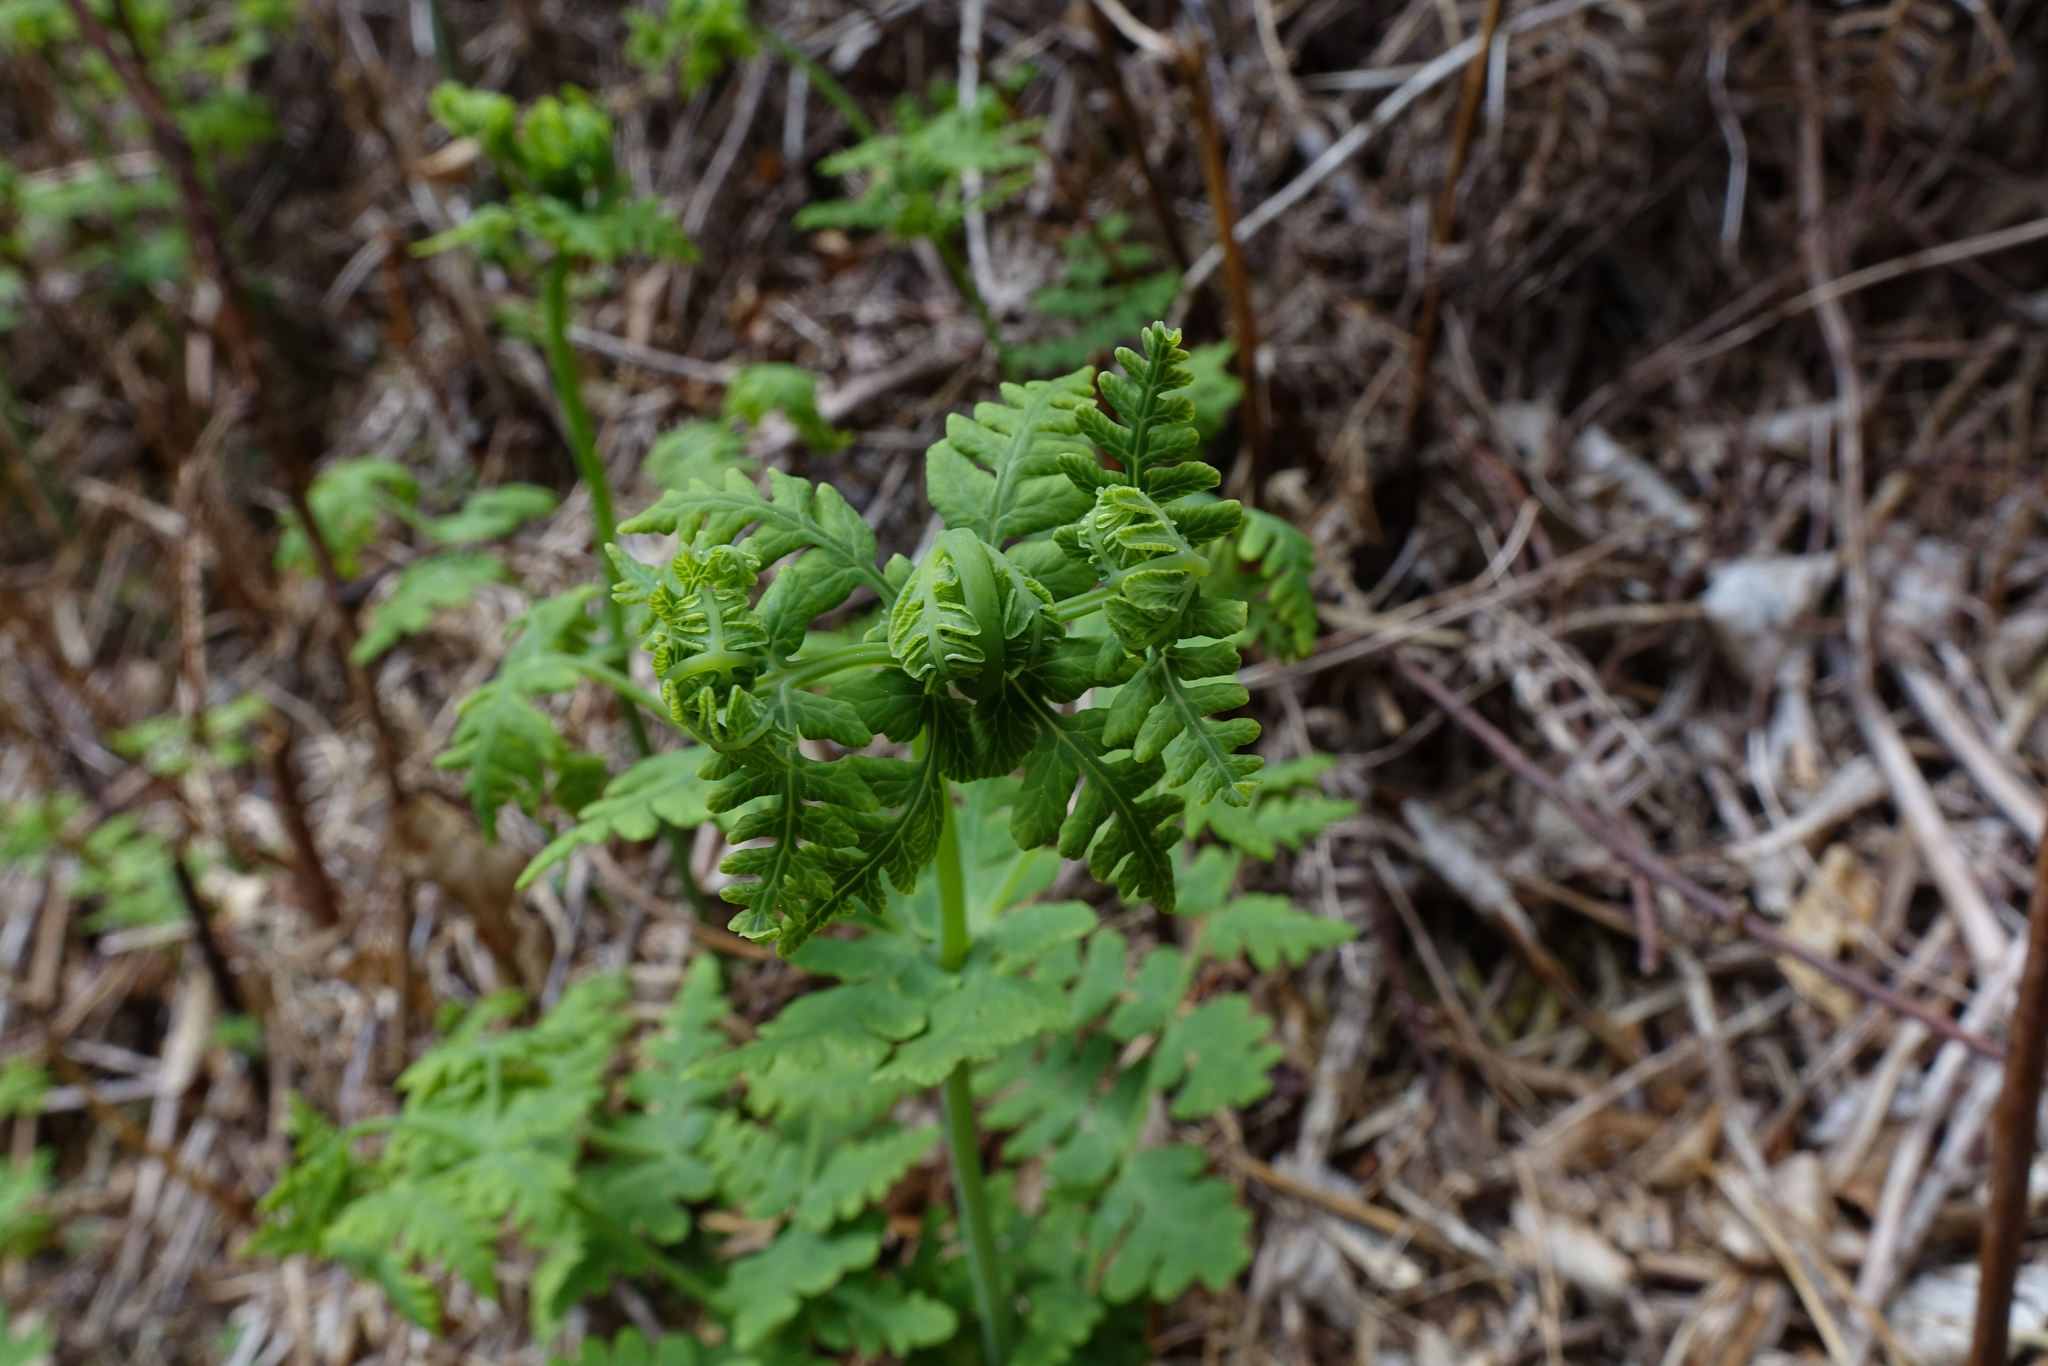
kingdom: Plantae
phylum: Tracheophyta
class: Polypodiopsida
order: Polypodiales
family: Dennstaedtiaceae
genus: Histiopteris
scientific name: Histiopteris incisa
